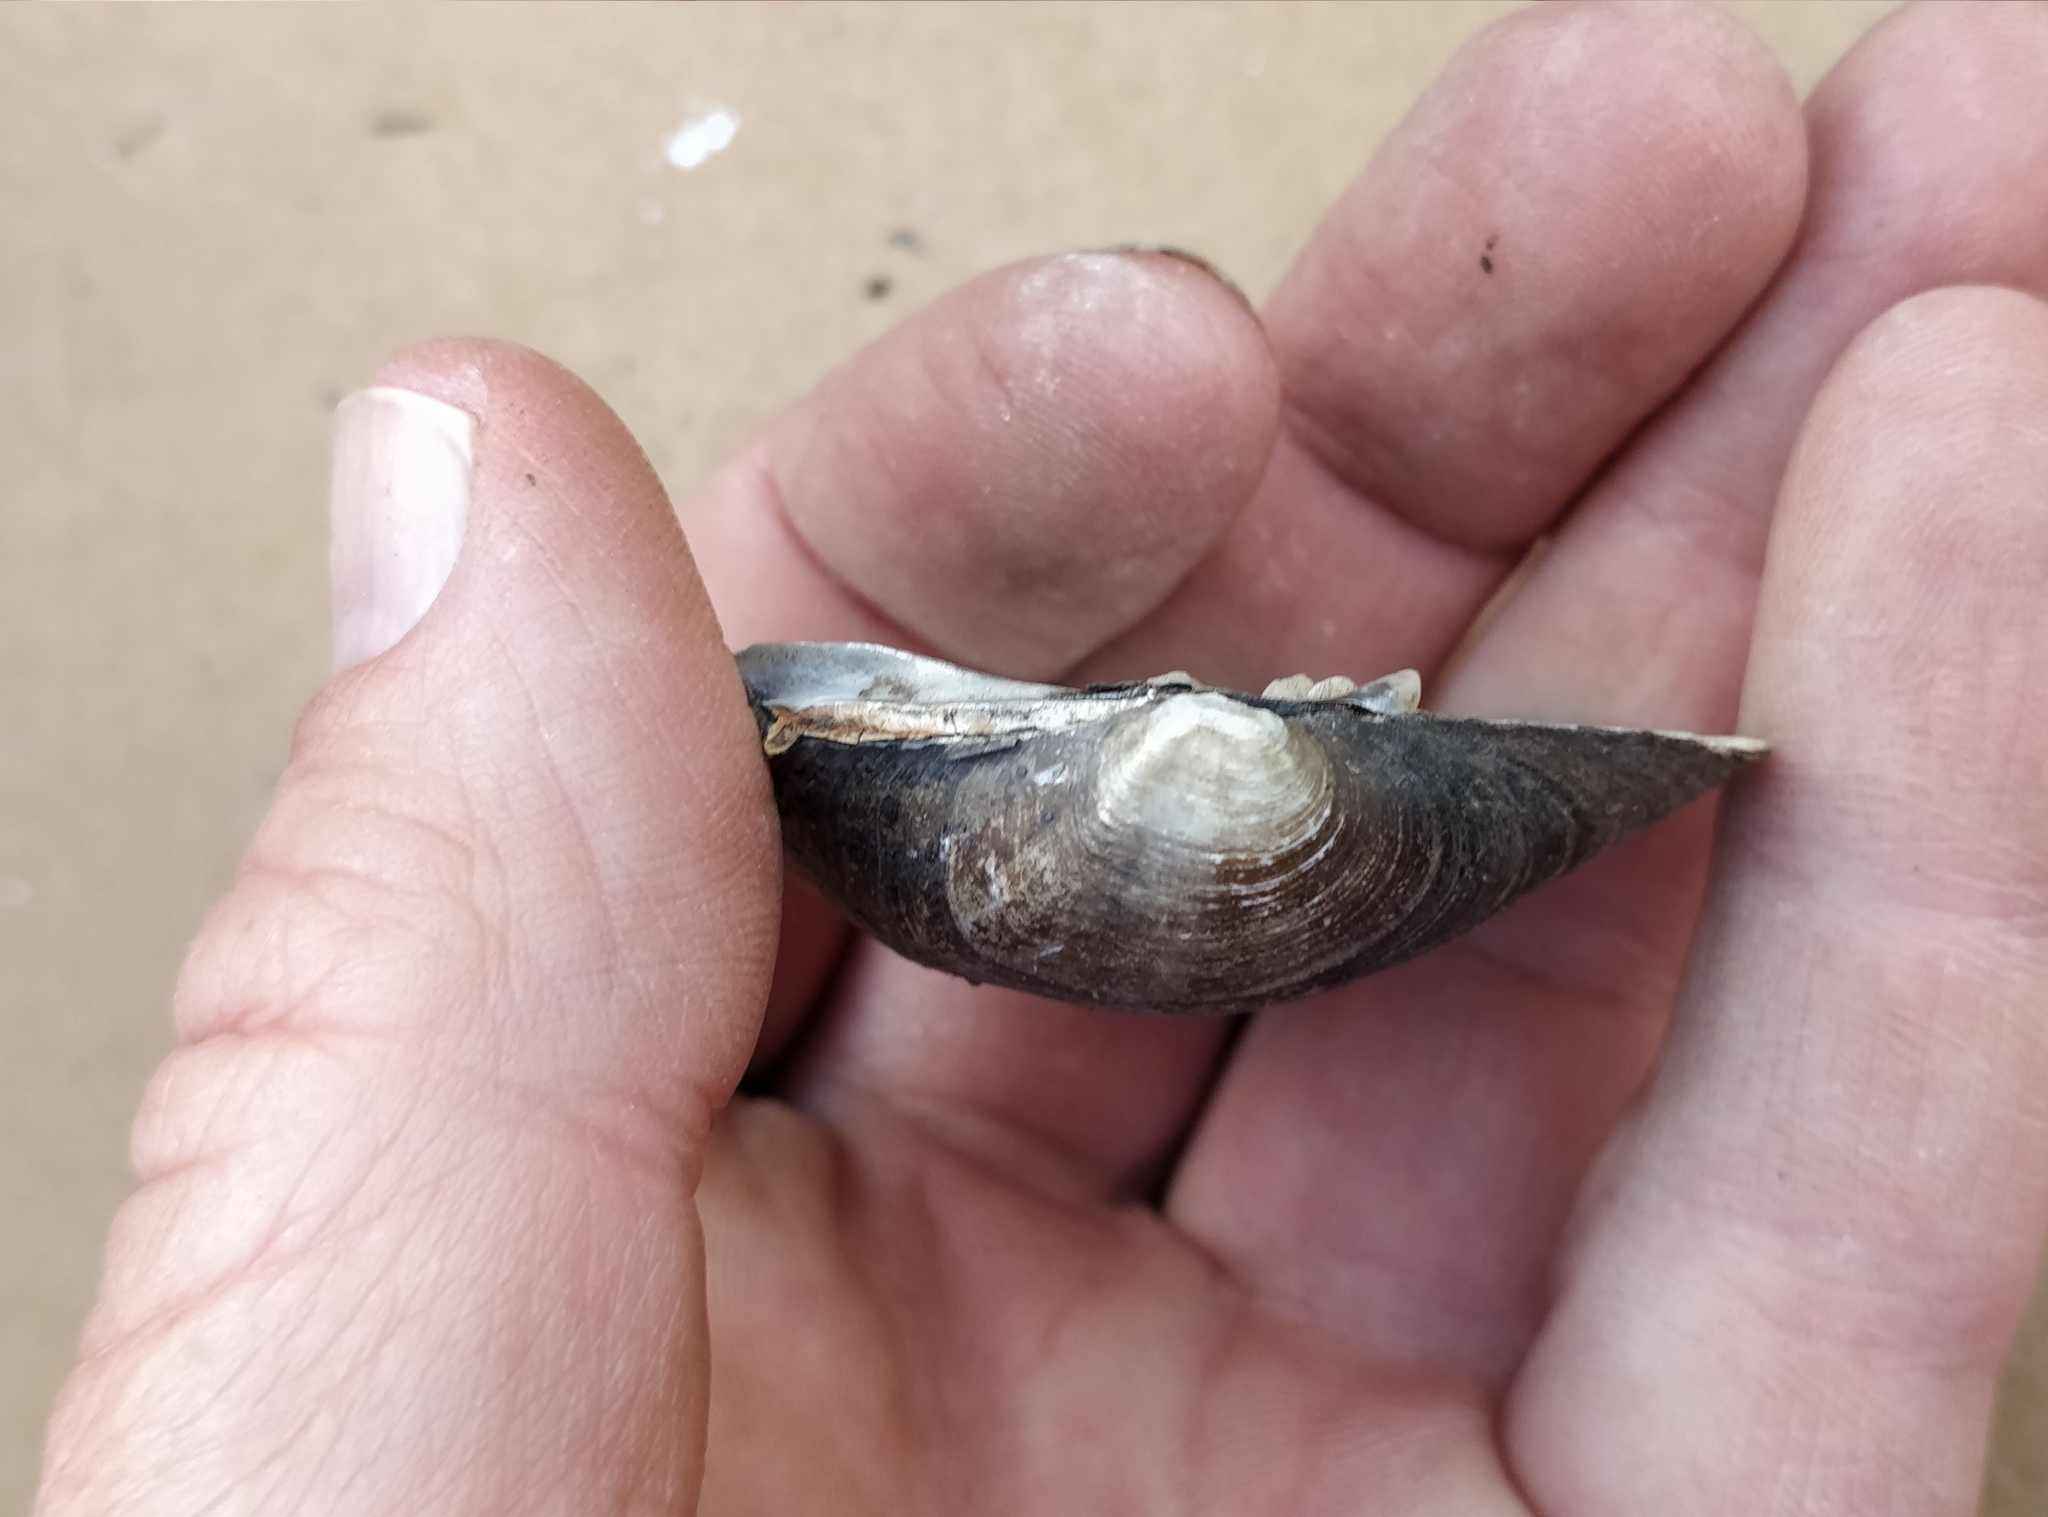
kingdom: Animalia
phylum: Mollusca
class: Bivalvia
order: Unionida
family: Unionidae
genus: Cyclonaias
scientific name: Cyclonaias pustulosa
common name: Pimpleback
